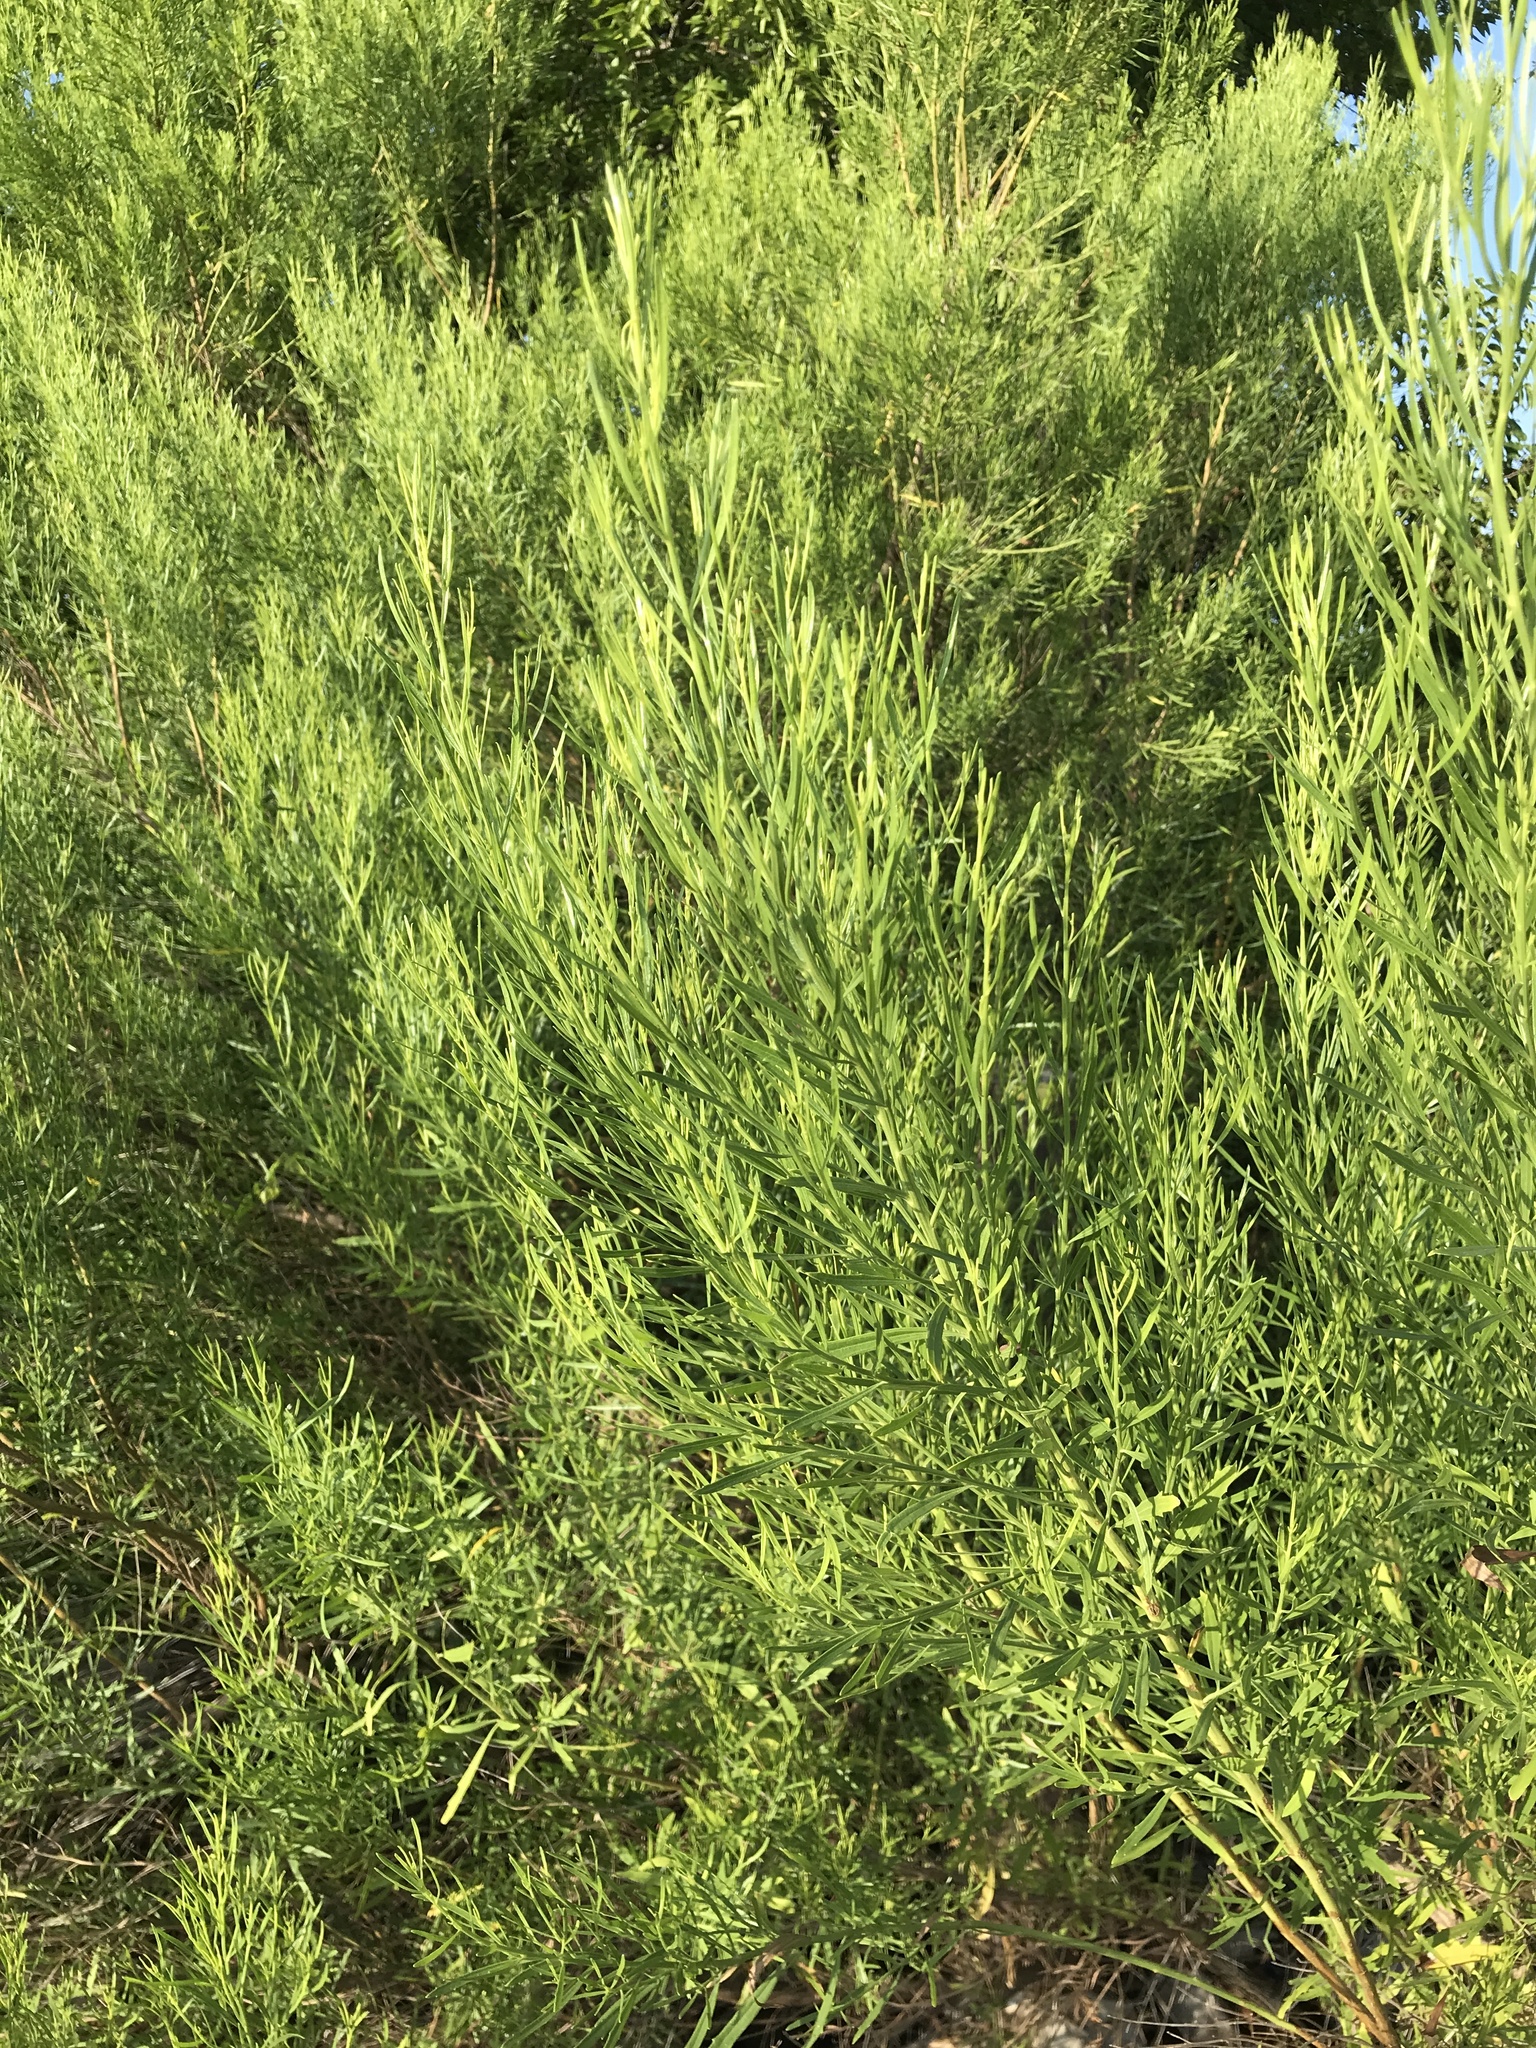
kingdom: Plantae
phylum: Tracheophyta
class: Magnoliopsida
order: Asterales
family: Asteraceae
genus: Baccharis
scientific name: Baccharis neglecta
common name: Roosevelt-weed
